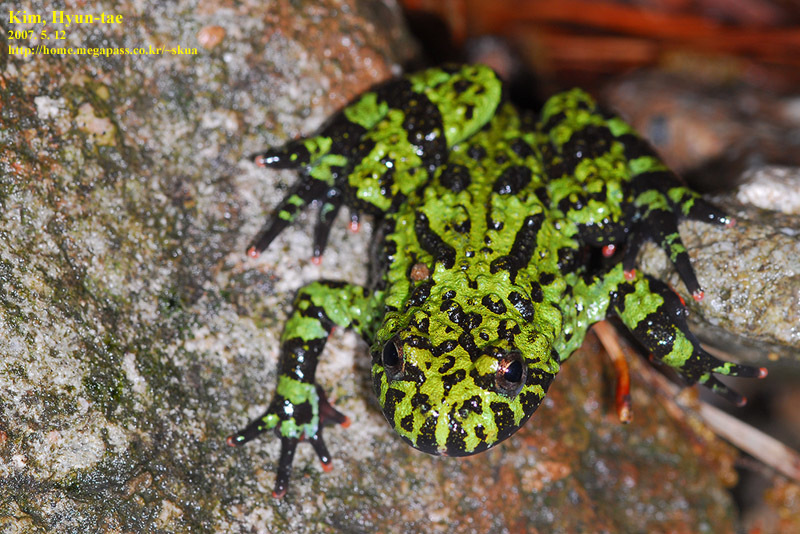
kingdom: Animalia
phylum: Chordata
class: Amphibia
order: Anura
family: Bombinatoridae
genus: Bombina
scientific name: Bombina orientalis
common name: Oriental firebelly toad
